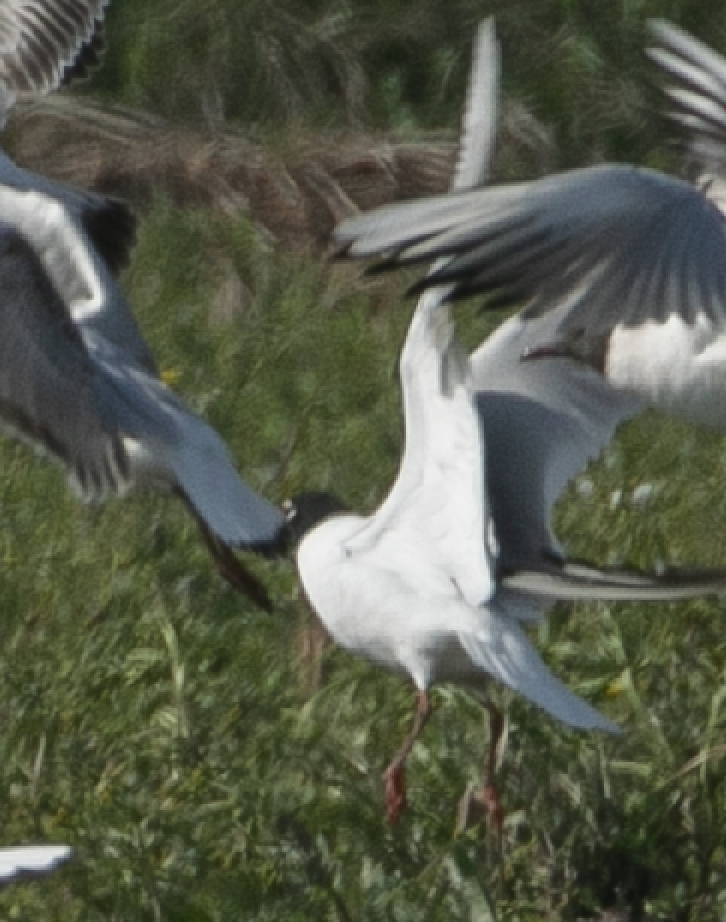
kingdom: Animalia
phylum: Chordata
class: Aves
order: Charadriiformes
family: Laridae
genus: Ichthyaetus
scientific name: Ichthyaetus melanocephalus
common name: Mediterranean gull
